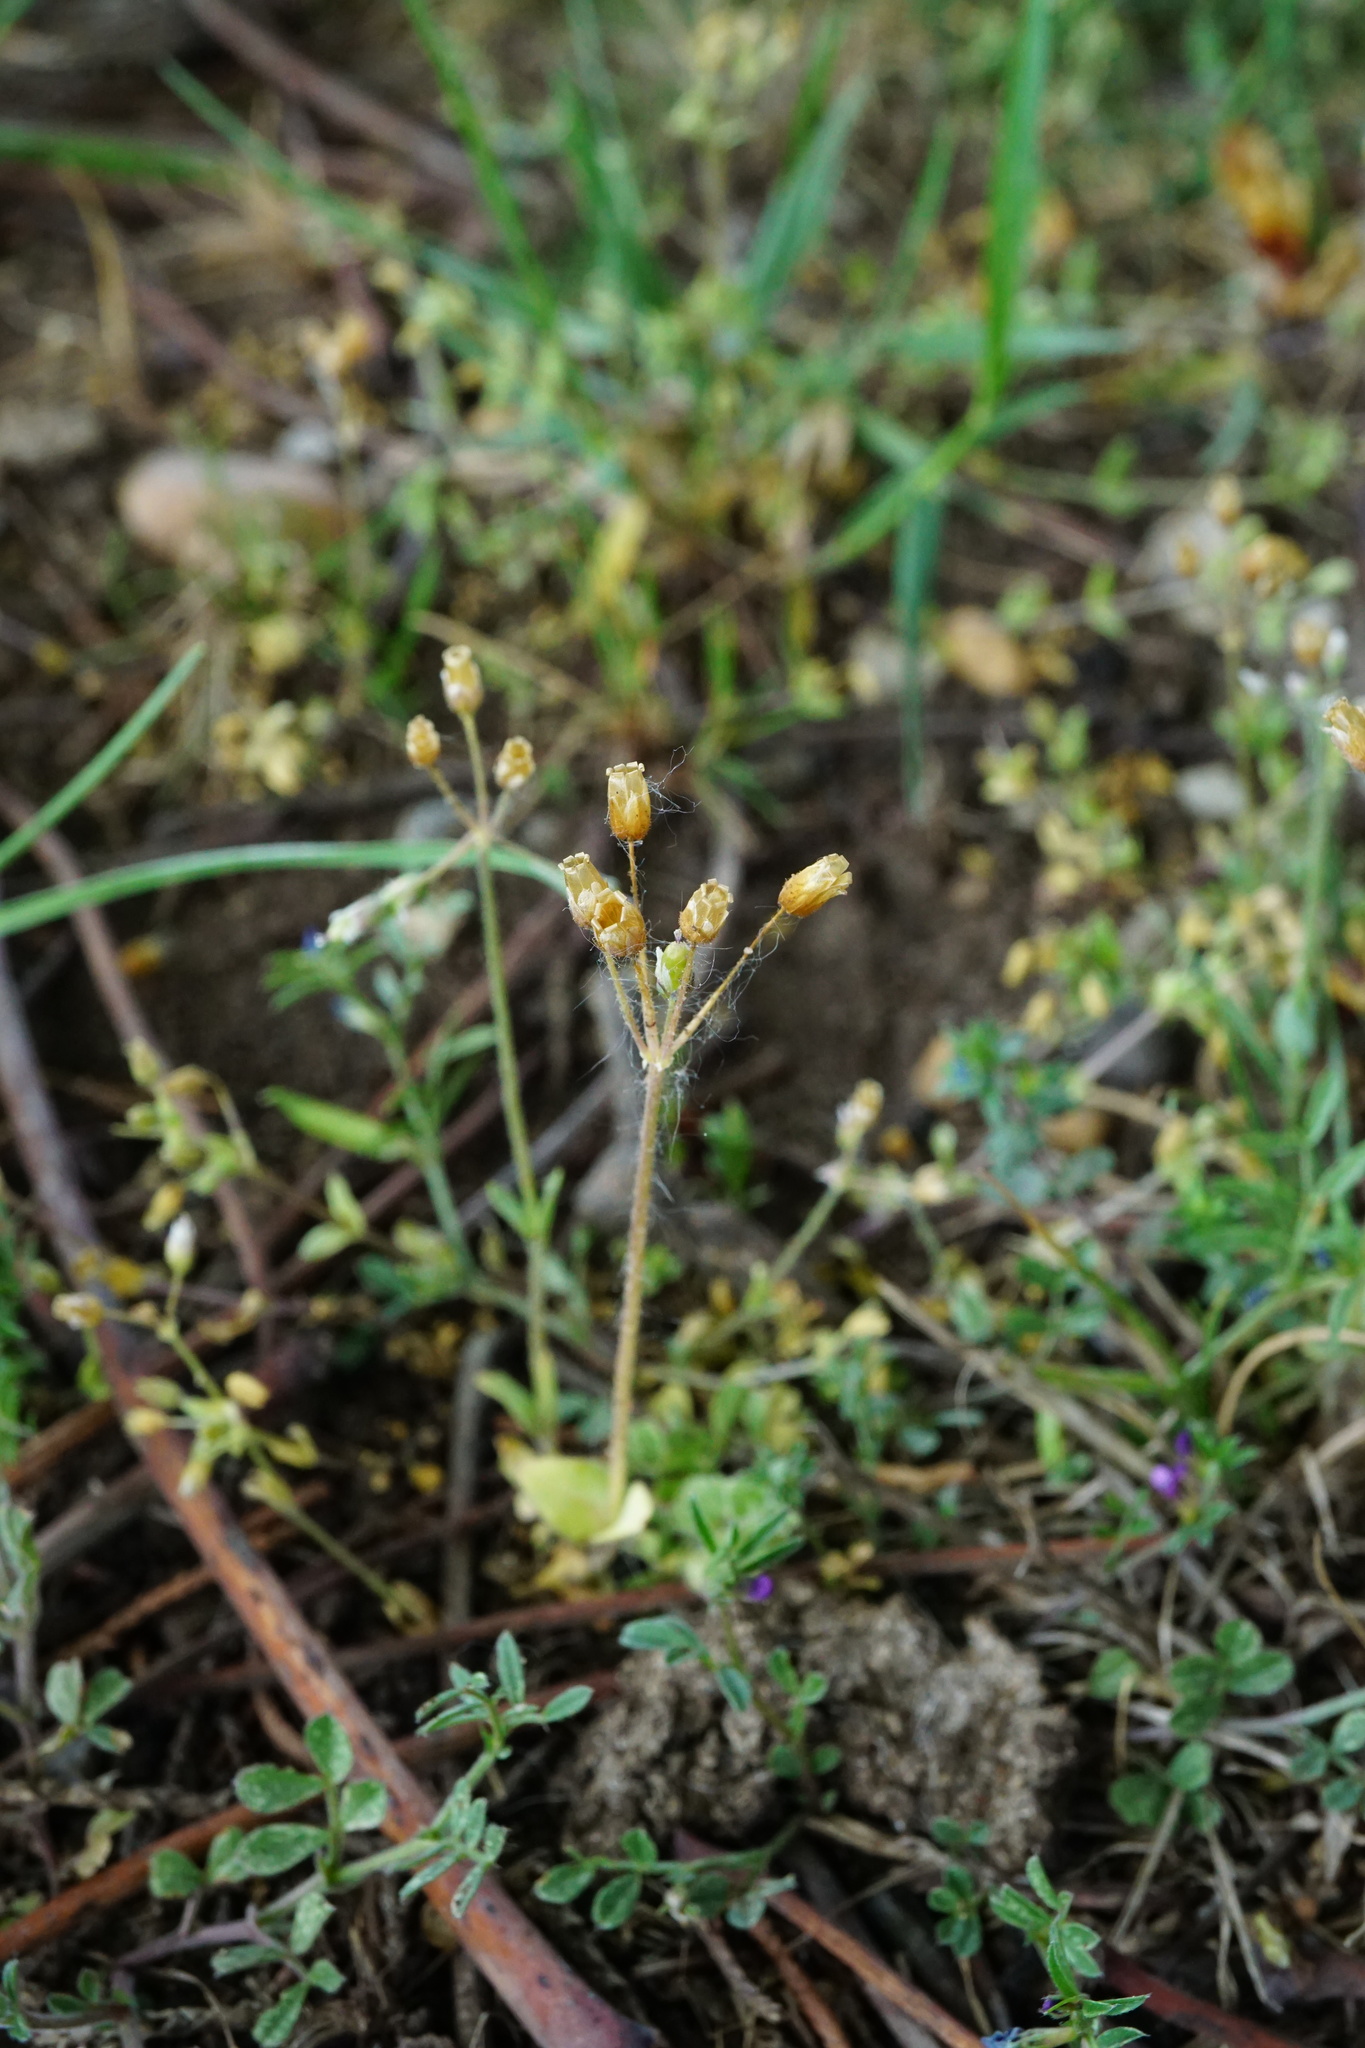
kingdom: Plantae
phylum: Tracheophyta
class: Magnoliopsida
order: Caryophyllales
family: Caryophyllaceae
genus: Holosteum
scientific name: Holosteum umbellatum
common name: Jagged chickweed
